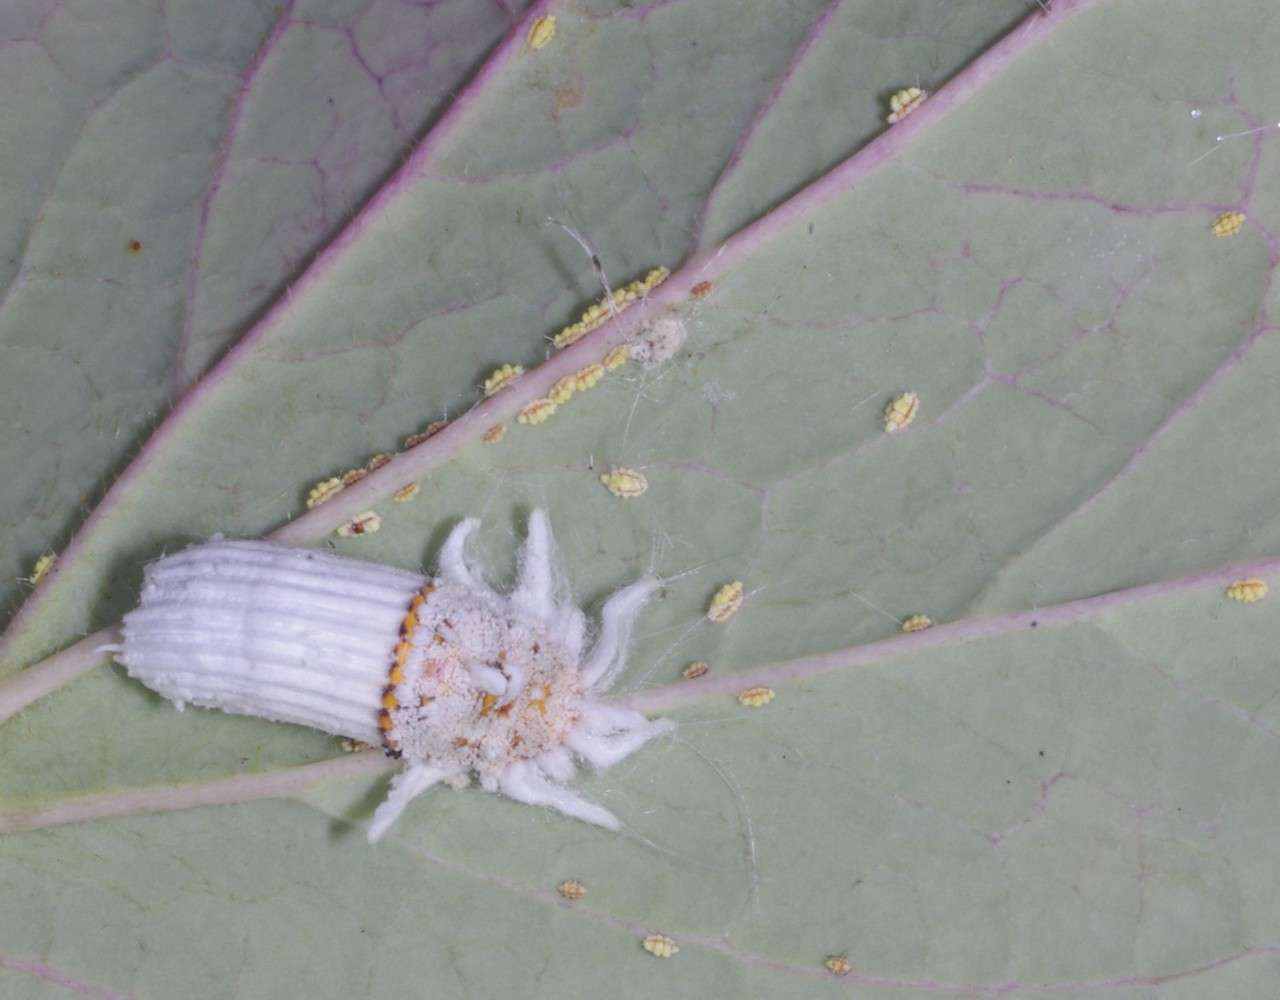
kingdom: Animalia
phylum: Arthropoda
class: Insecta
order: Hemiptera
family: Margarodidae
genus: Icerya
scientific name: Icerya purchasi
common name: Cottony cushion scale
